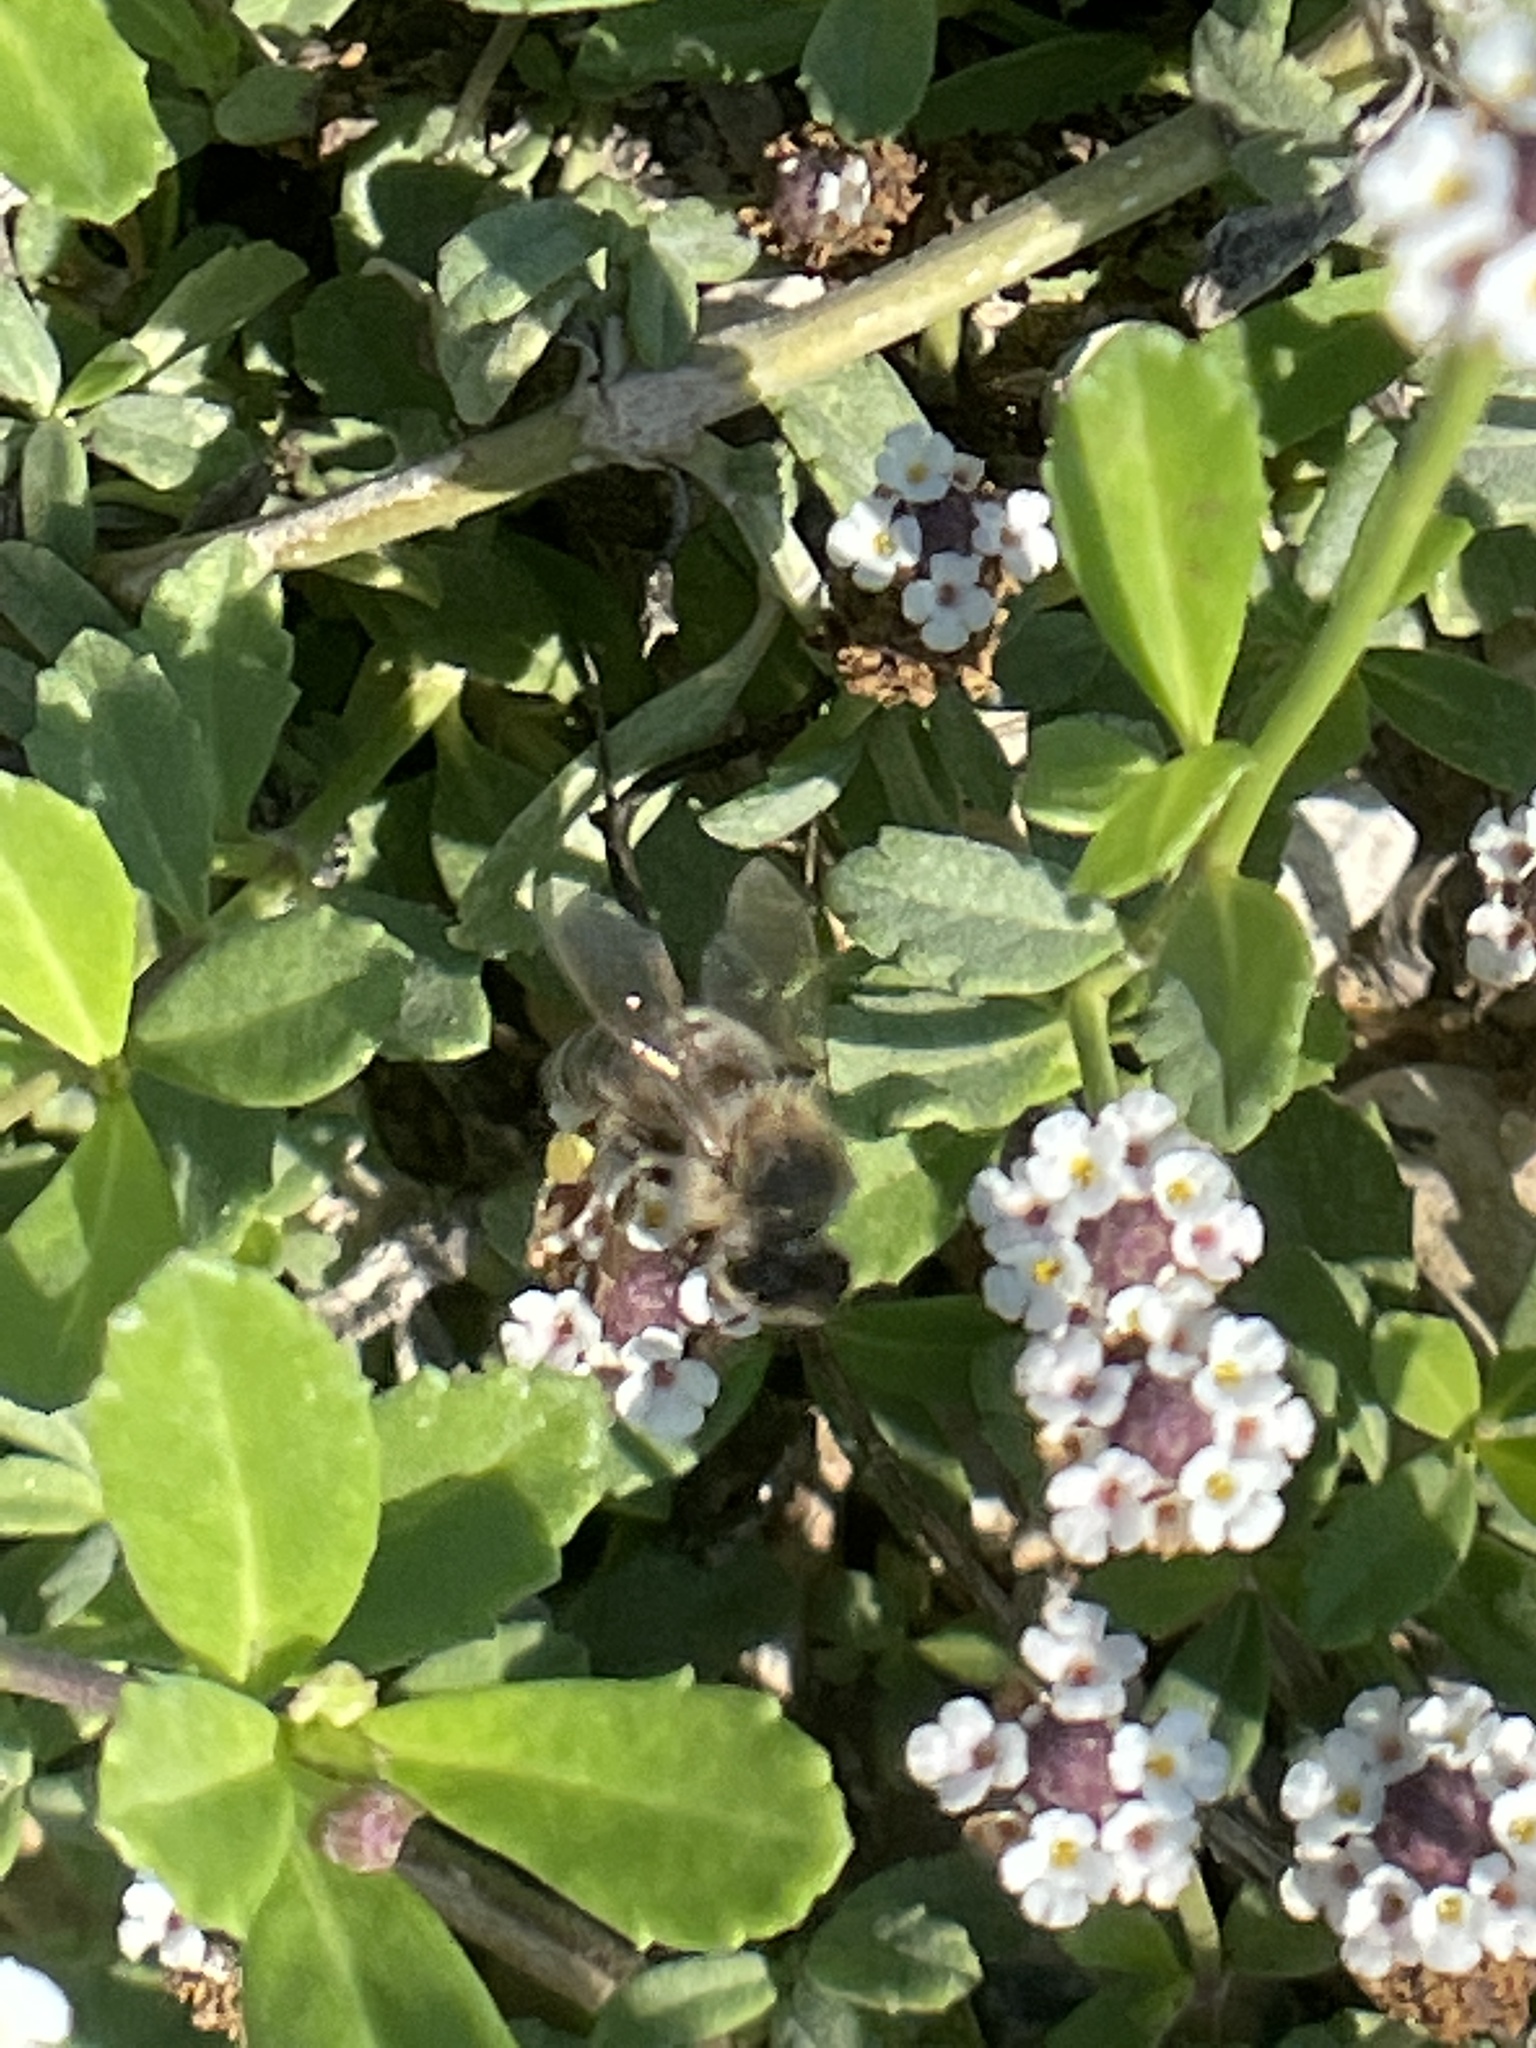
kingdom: Animalia
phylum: Arthropoda
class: Insecta
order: Hymenoptera
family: Apidae
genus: Apis
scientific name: Apis mellifera
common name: Honey bee
